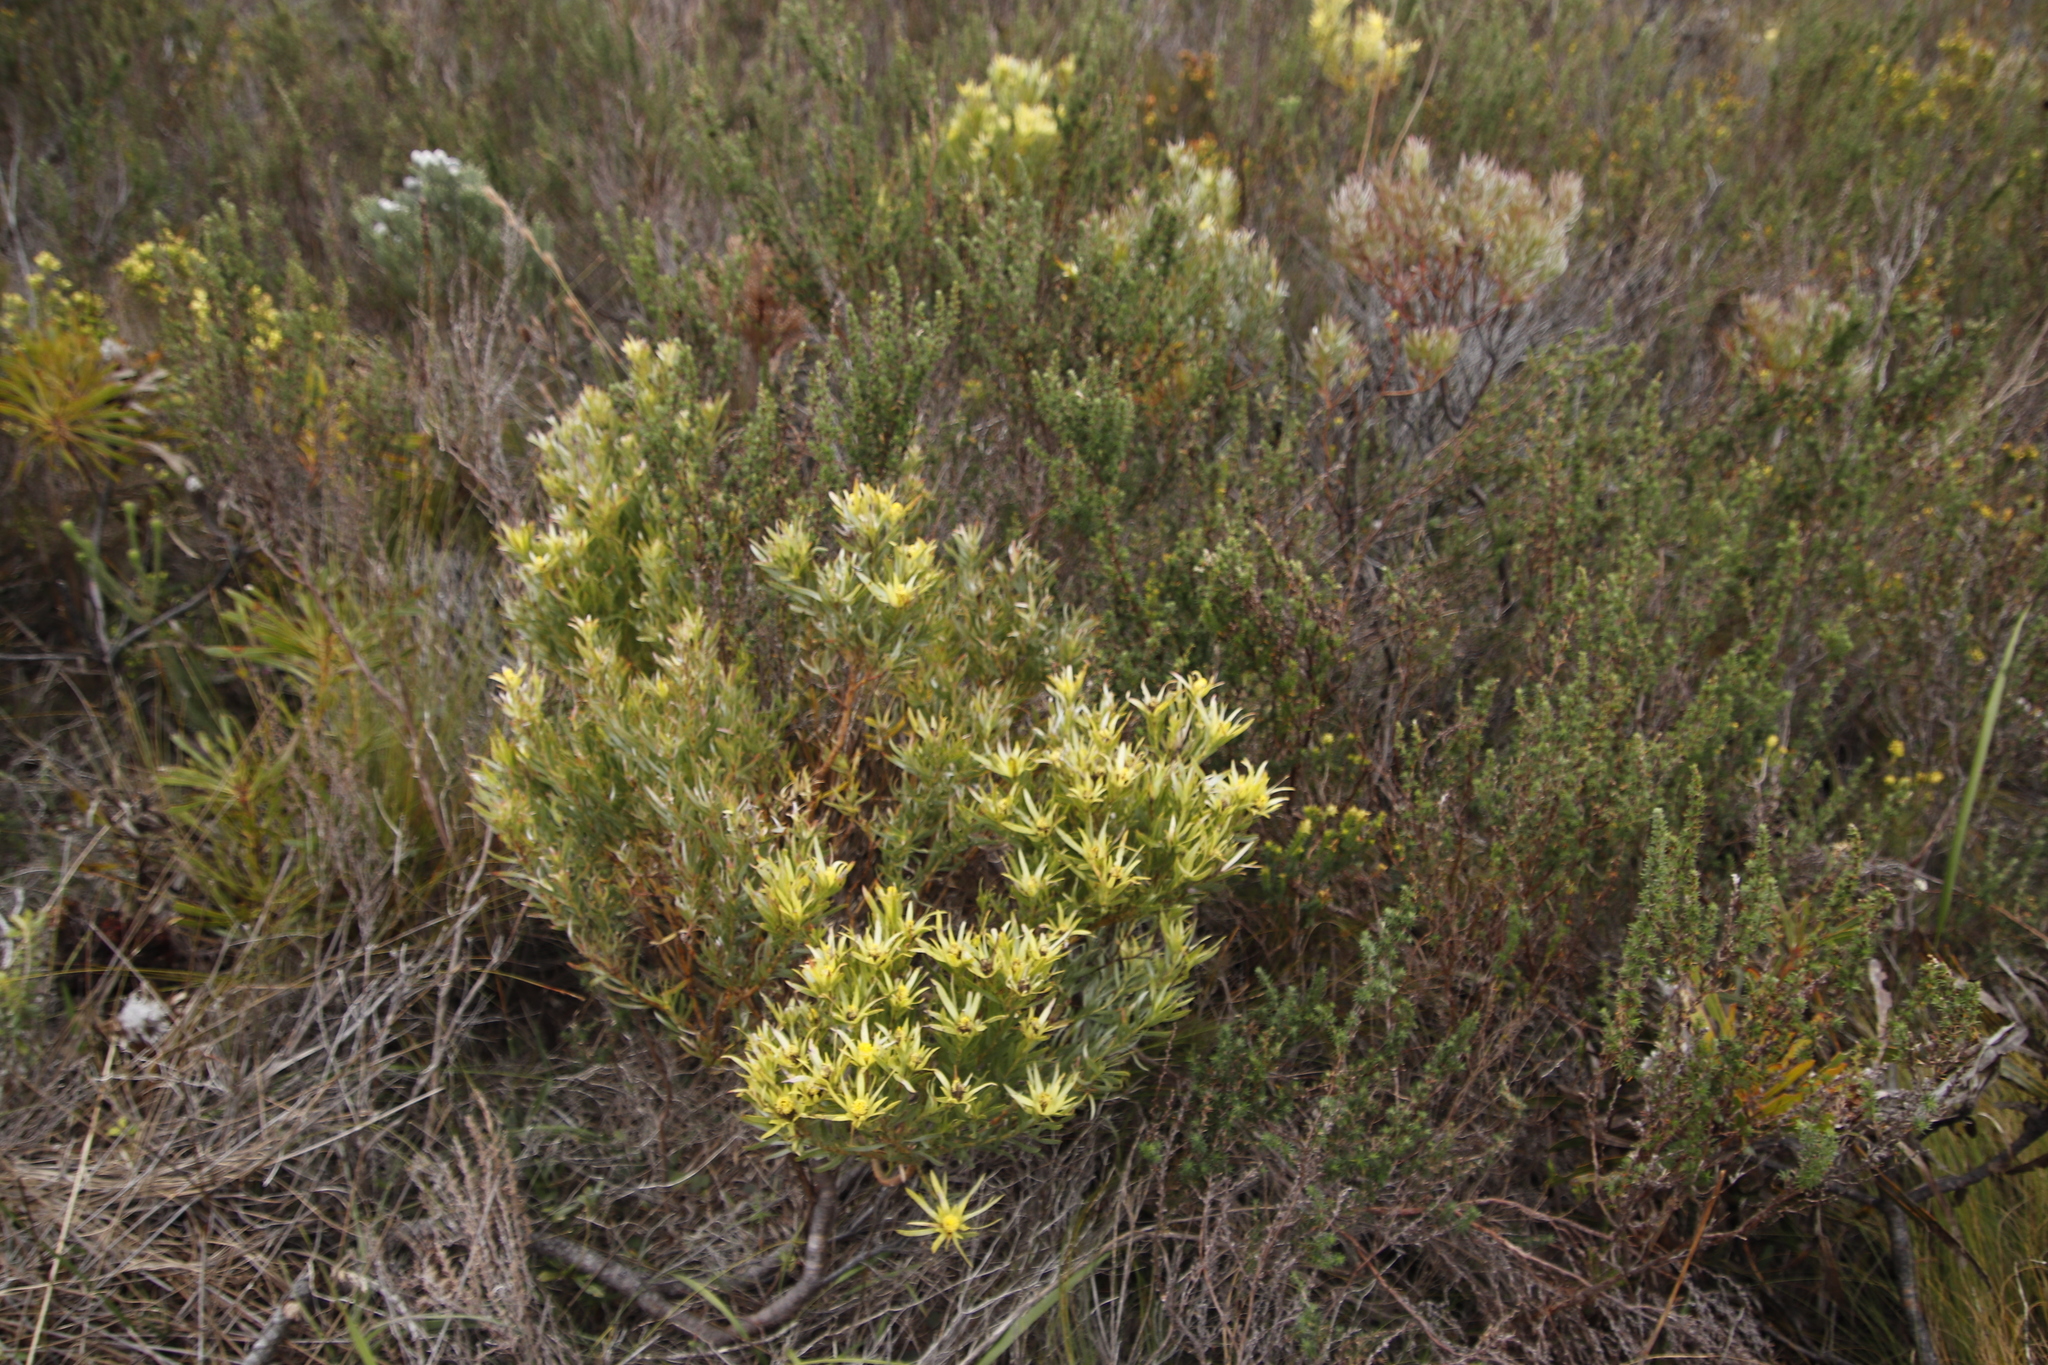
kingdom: Plantae
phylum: Tracheophyta
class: Magnoliopsida
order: Proteales
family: Proteaceae
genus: Leucadendron
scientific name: Leucadendron xanthoconus
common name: Sickle-leaf conebush
